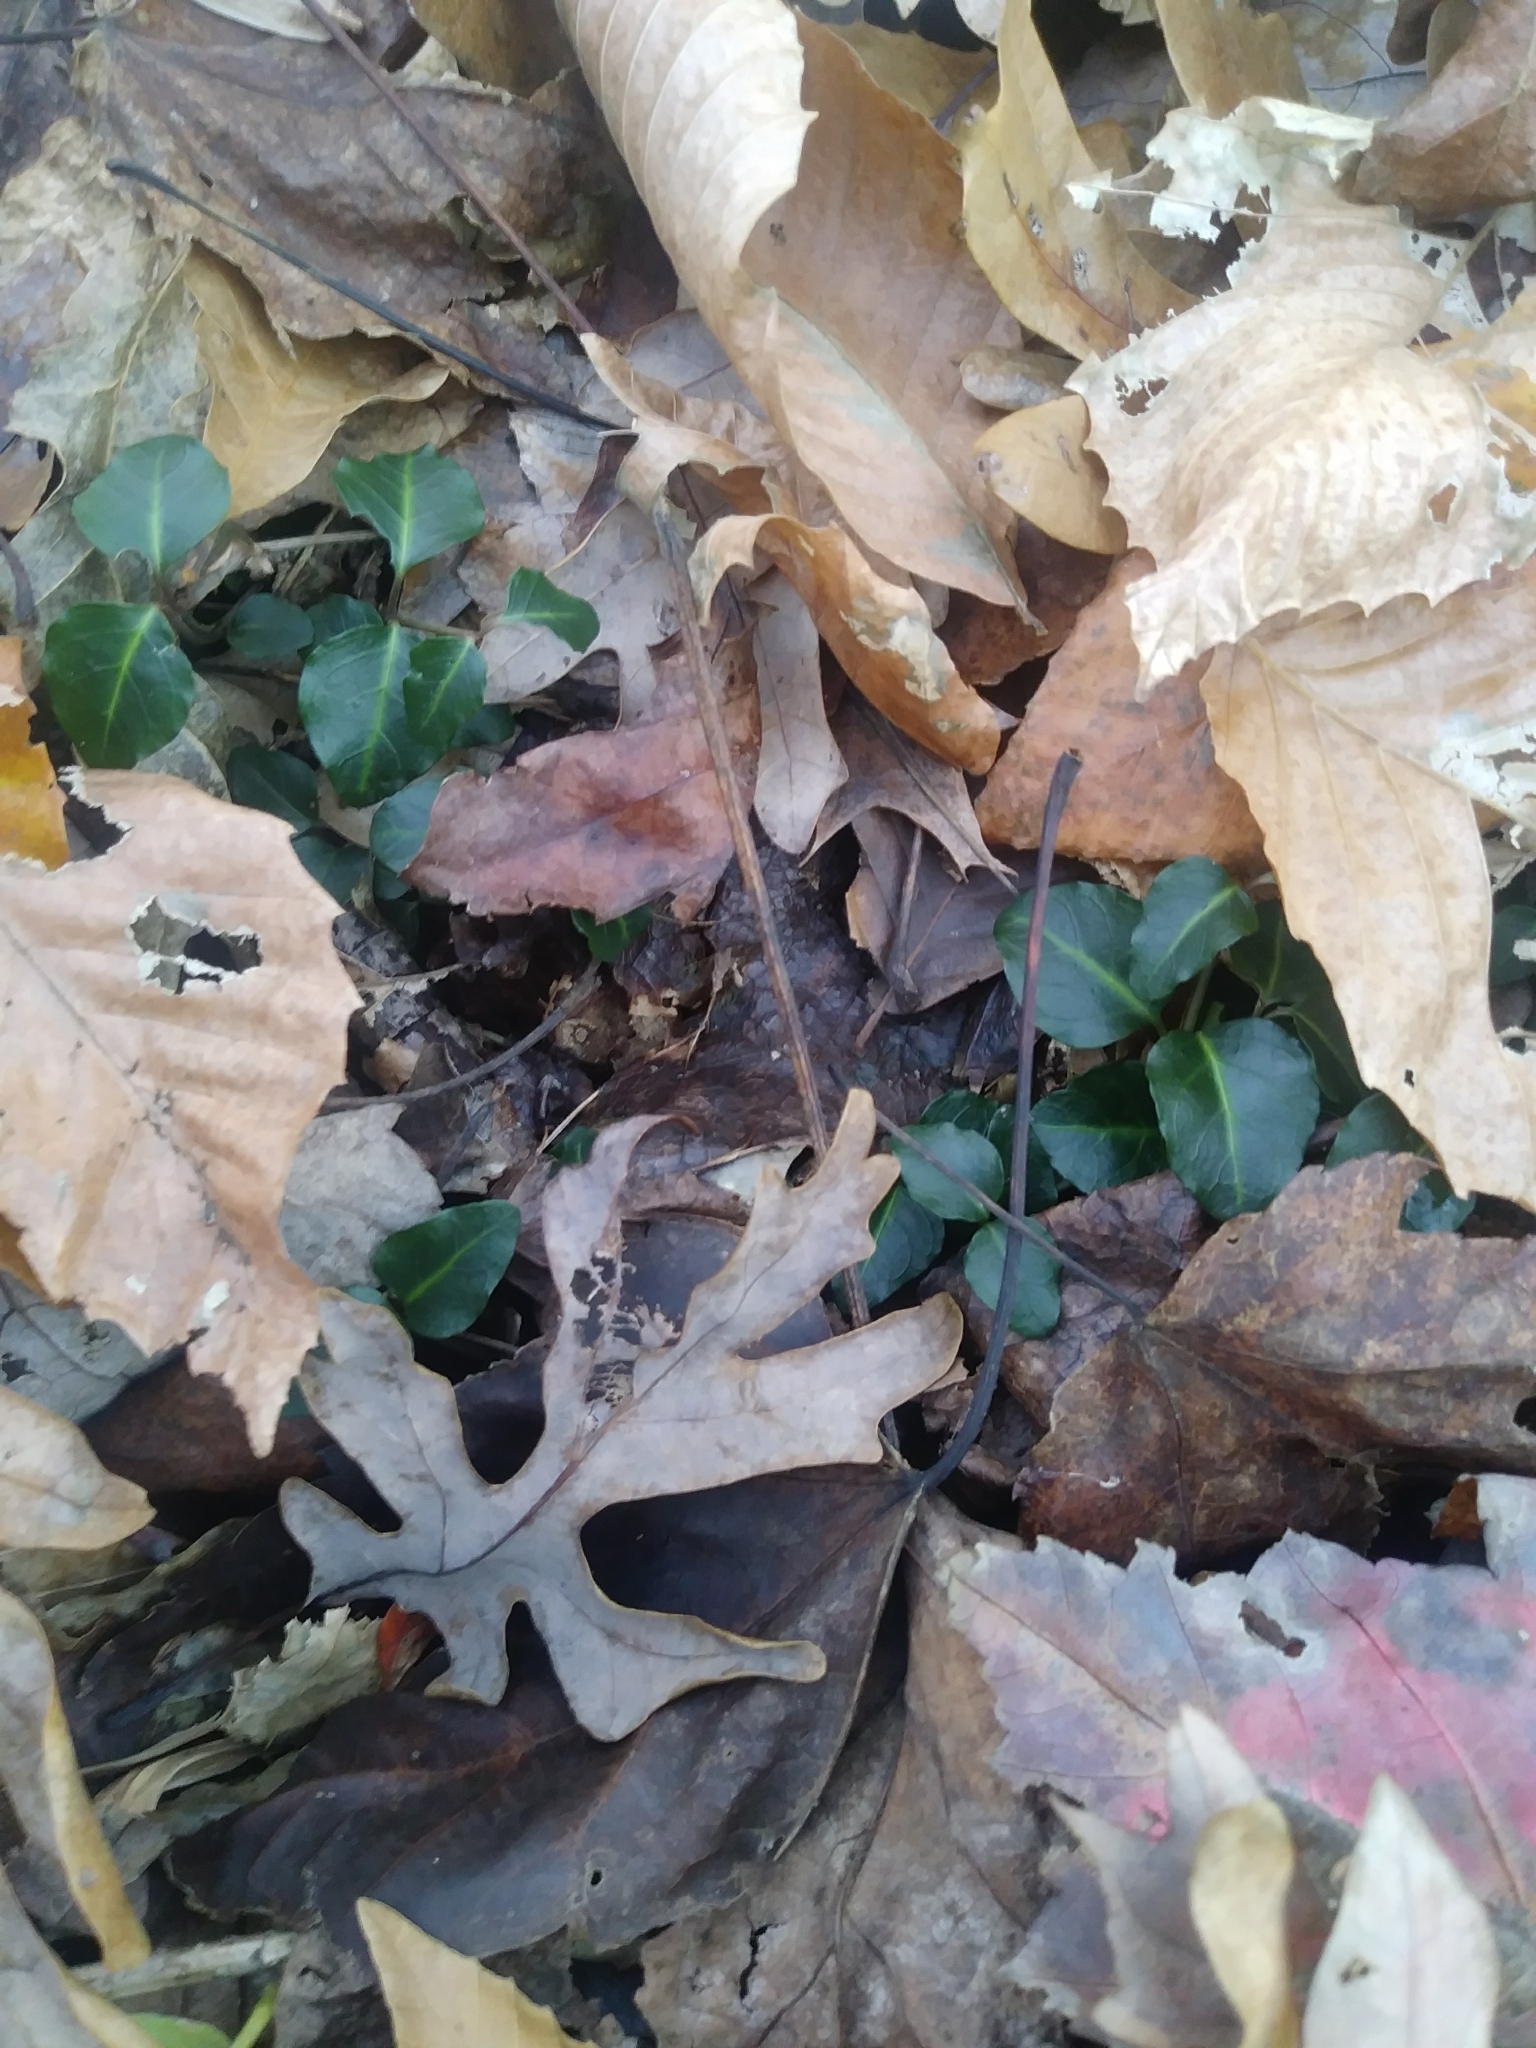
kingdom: Plantae
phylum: Tracheophyta
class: Magnoliopsida
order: Gentianales
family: Rubiaceae
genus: Mitchella
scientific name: Mitchella repens
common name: Partridge-berry
